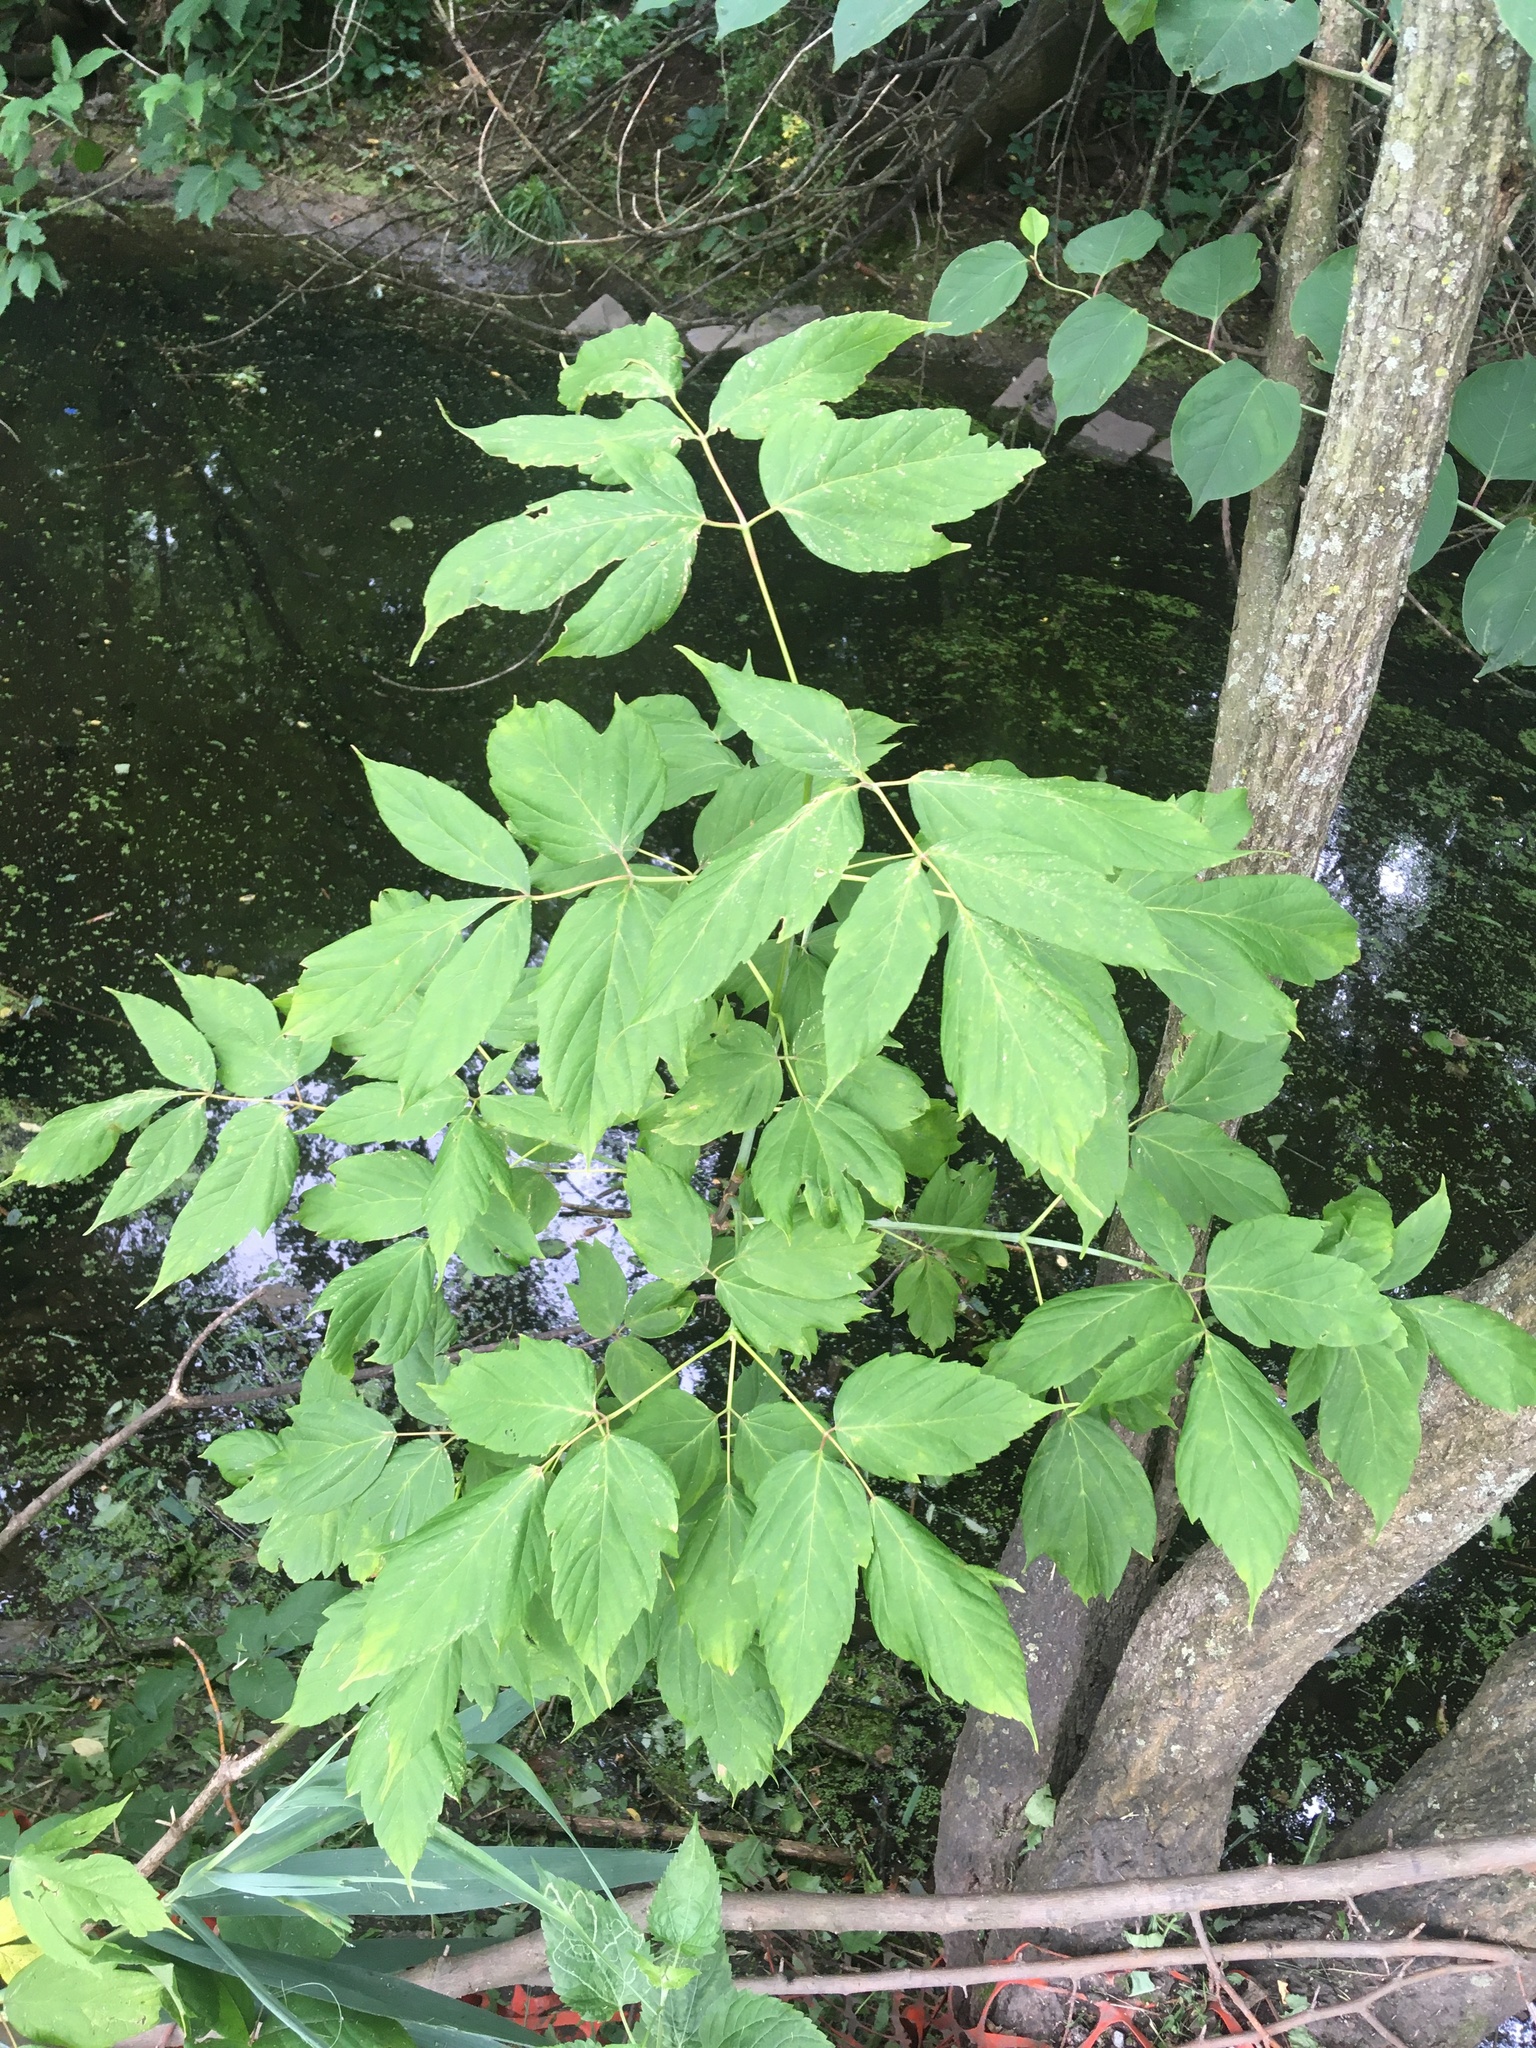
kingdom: Plantae
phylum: Tracheophyta
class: Magnoliopsida
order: Sapindales
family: Sapindaceae
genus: Acer
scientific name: Acer negundo
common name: Ashleaf maple
